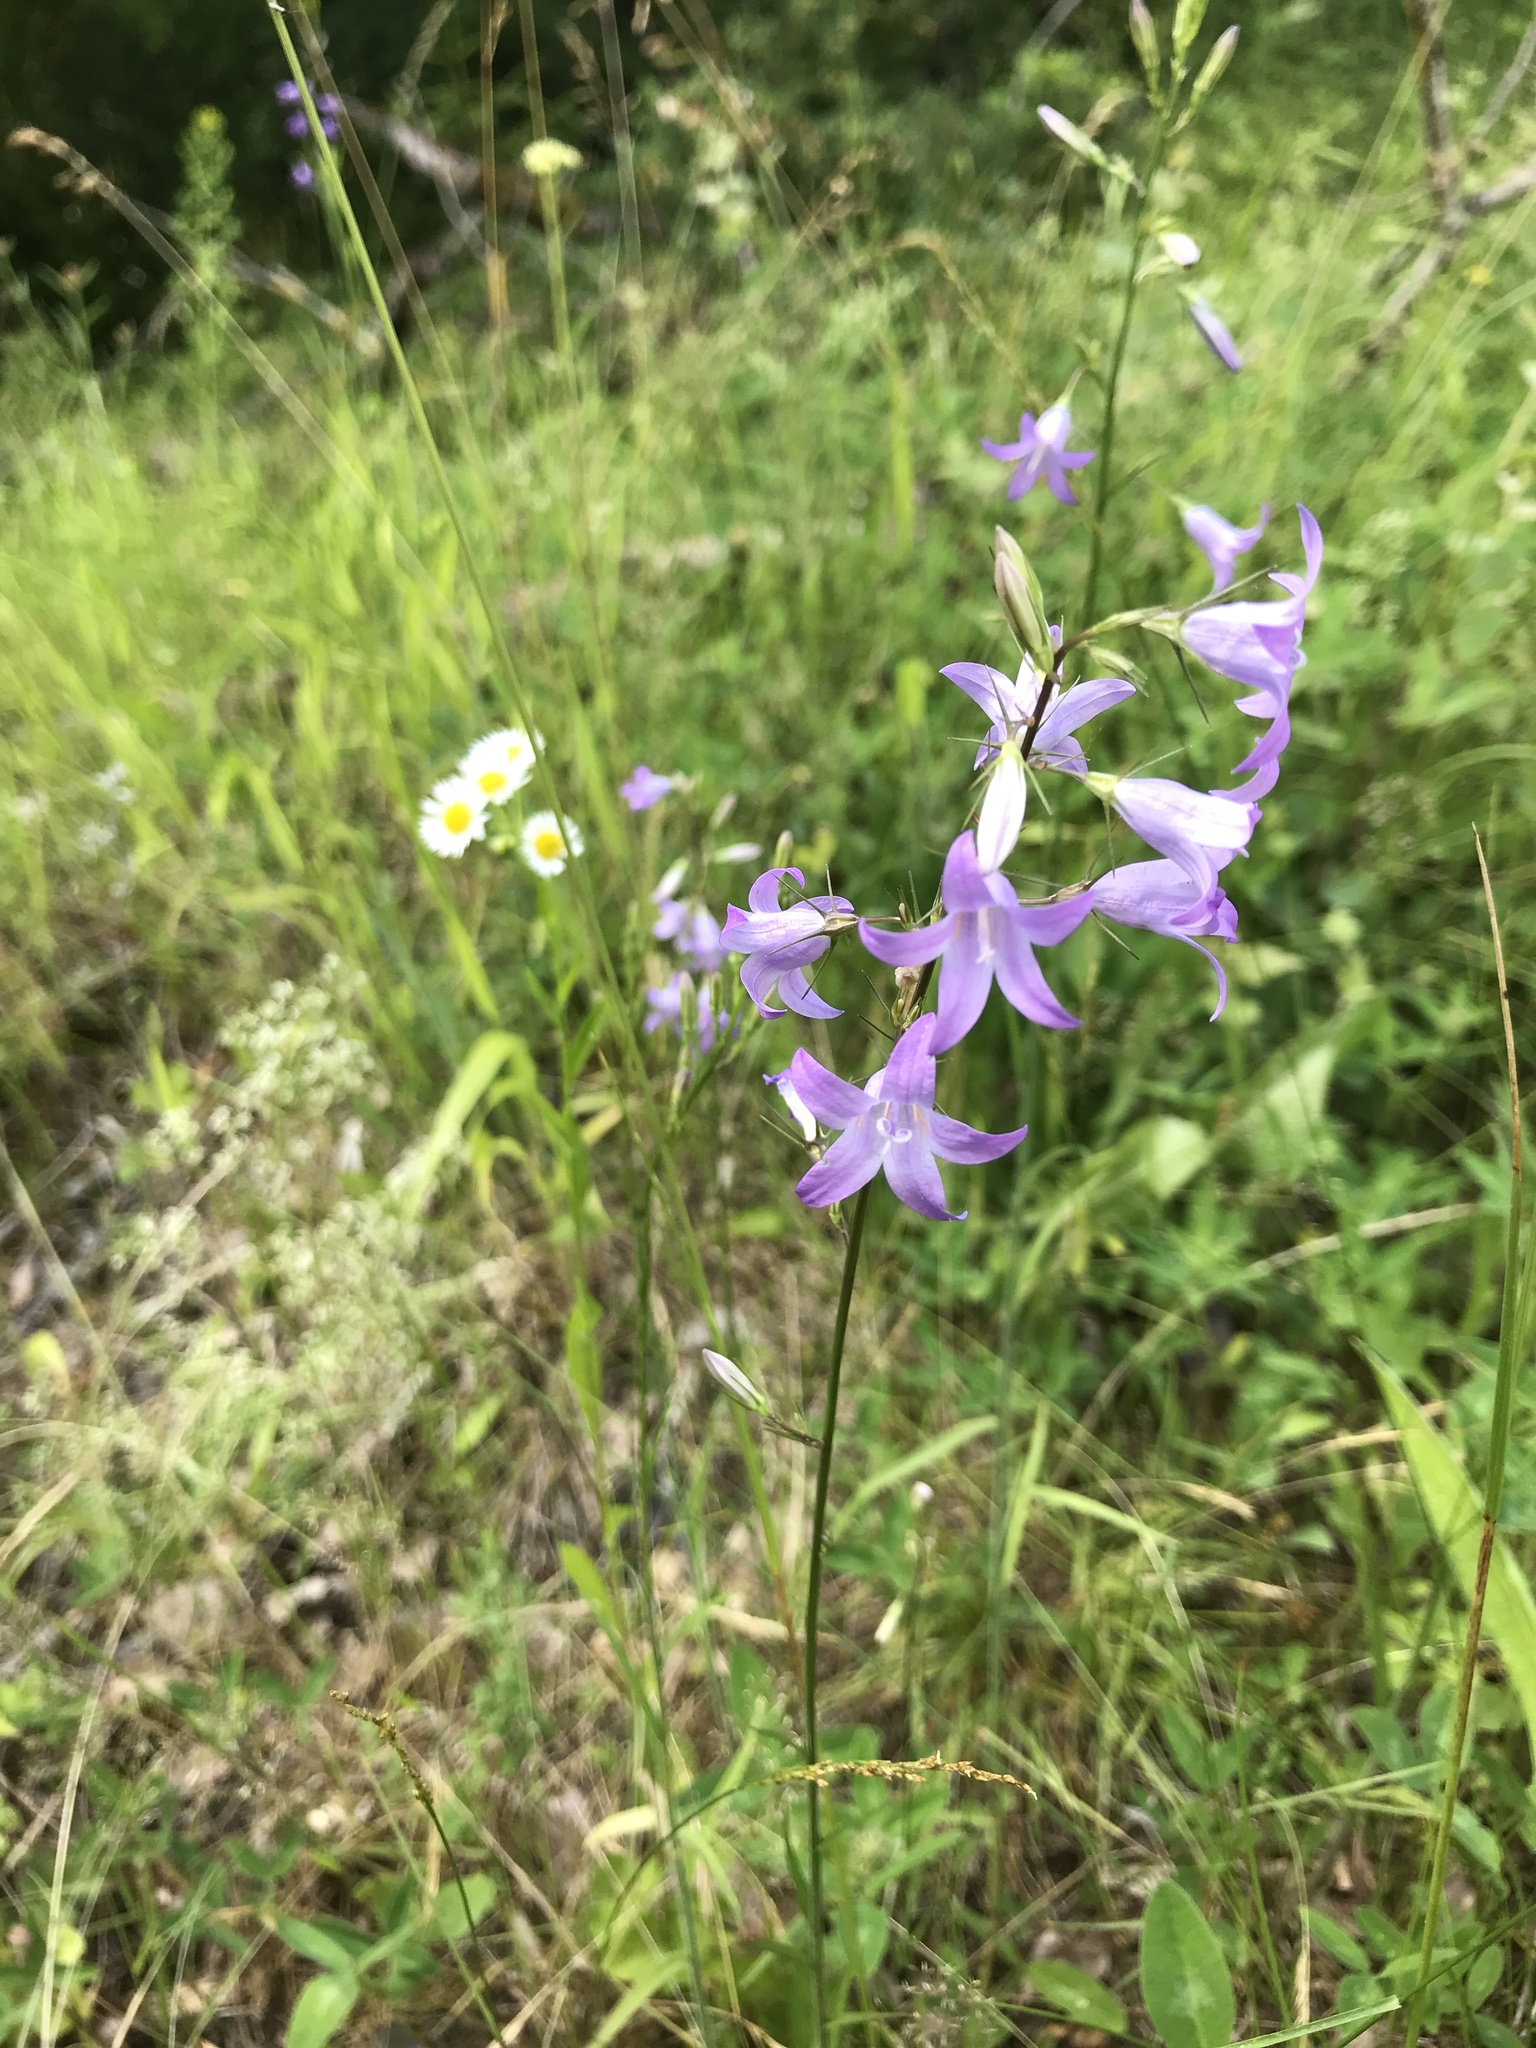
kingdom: Plantae
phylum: Tracheophyta
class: Magnoliopsida
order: Asterales
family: Campanulaceae
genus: Campanula
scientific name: Campanula rapunculus
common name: Rampion bellflower
